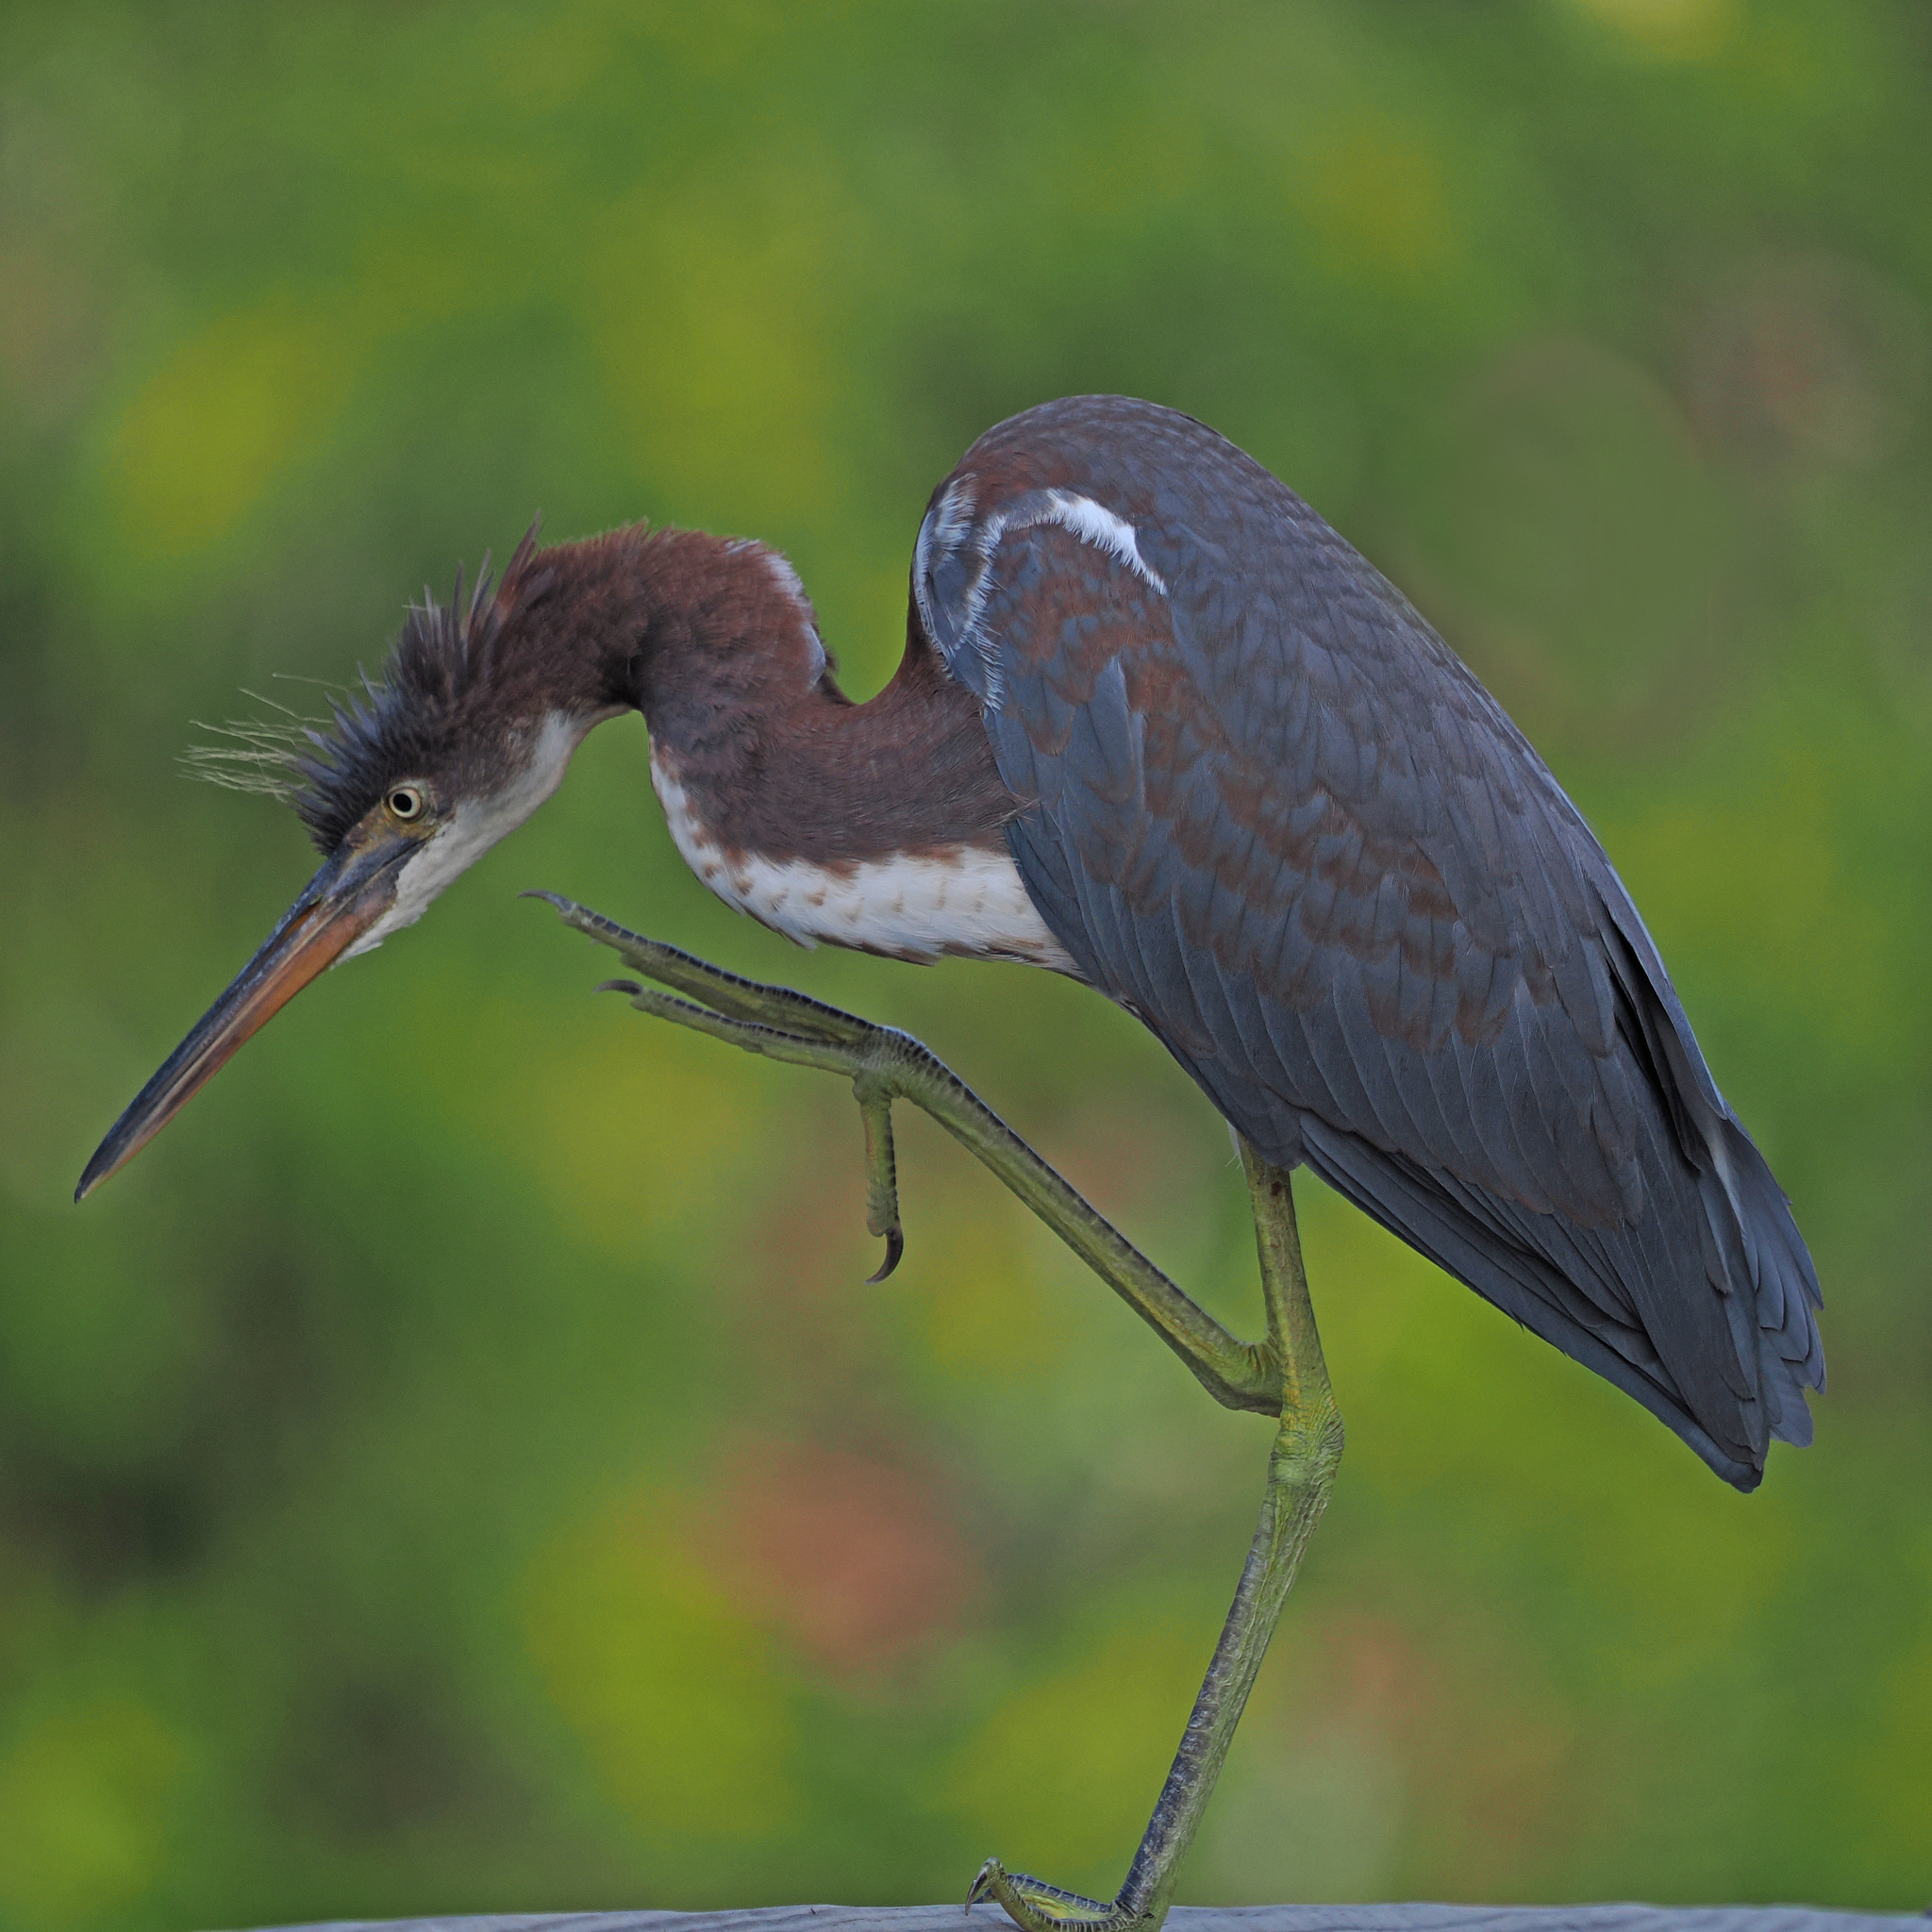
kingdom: Animalia
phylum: Chordata
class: Aves
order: Pelecaniformes
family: Ardeidae
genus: Egretta
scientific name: Egretta tricolor
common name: Tricolored heron
